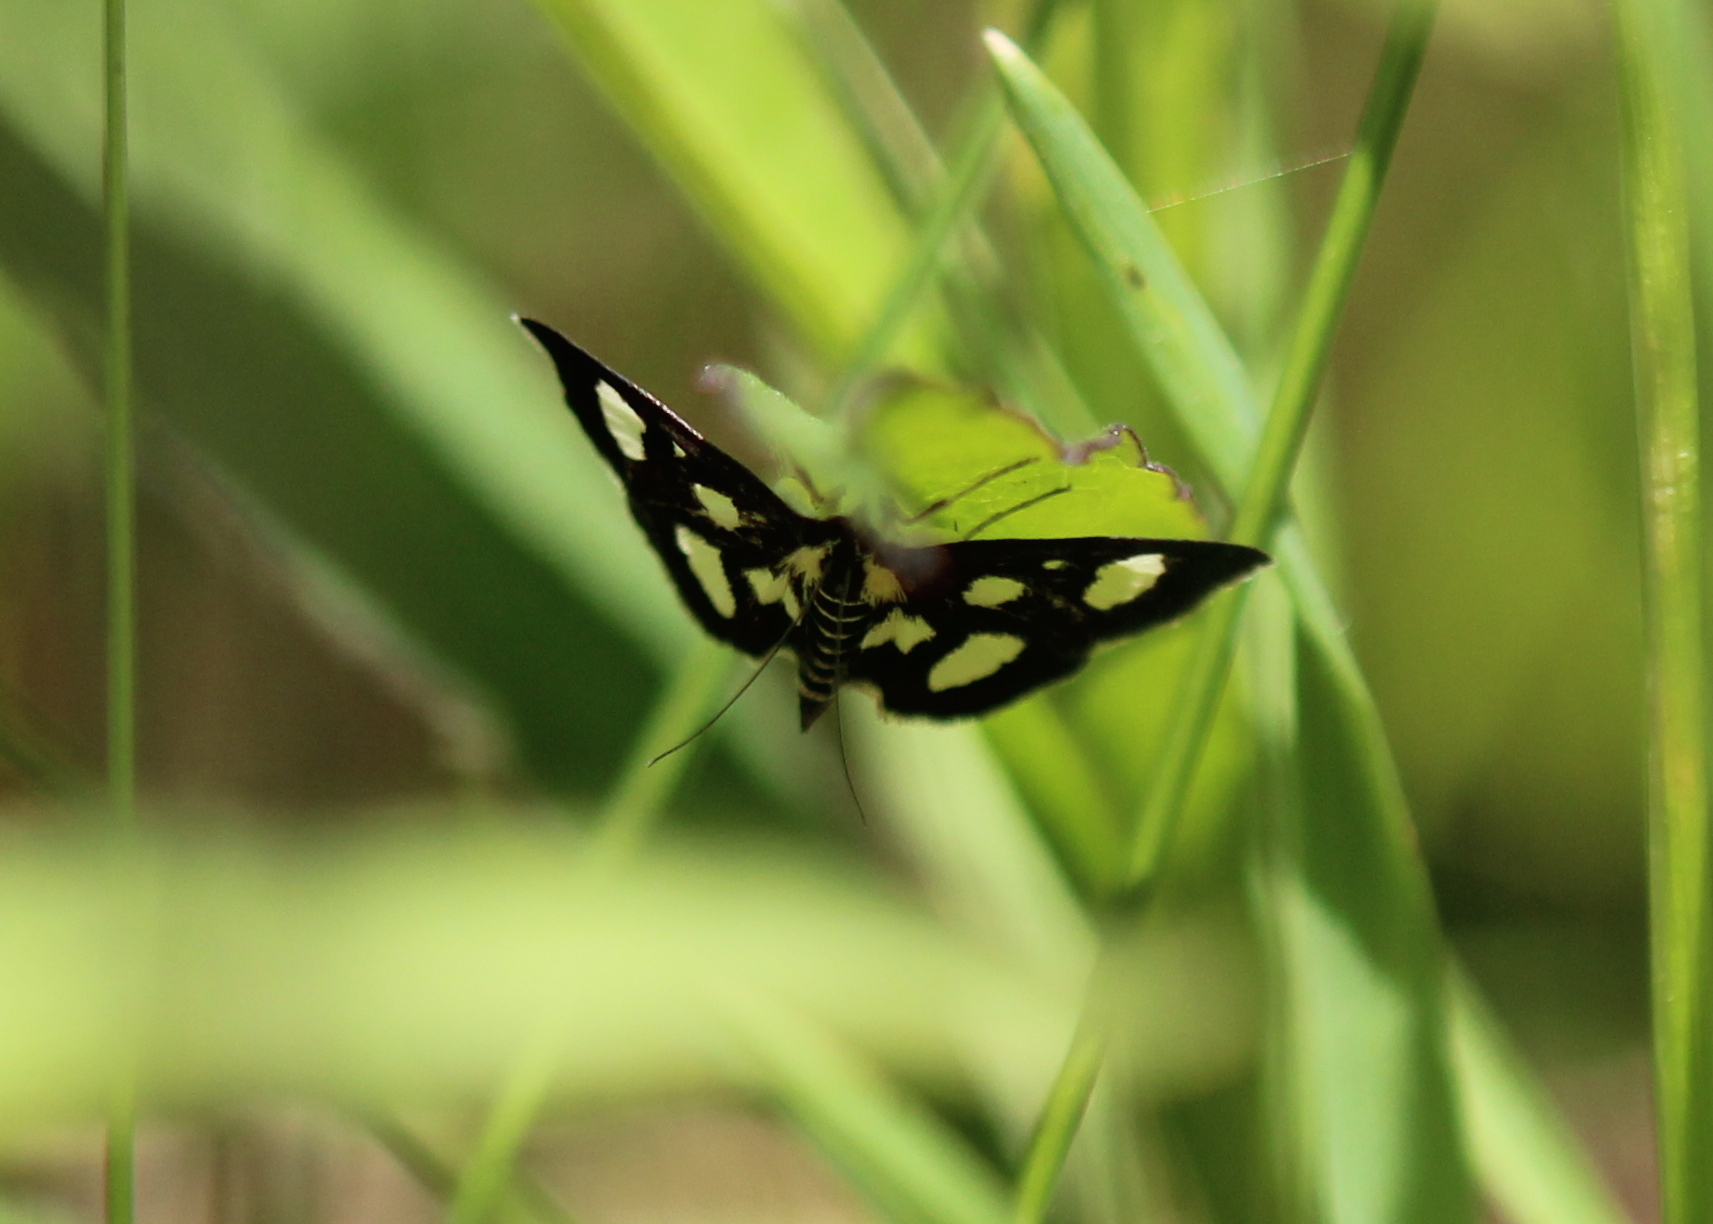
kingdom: Animalia
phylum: Arthropoda
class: Insecta
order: Lepidoptera
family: Crambidae
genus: Anania
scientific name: Anania funebris
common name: White-spotted sable moth
